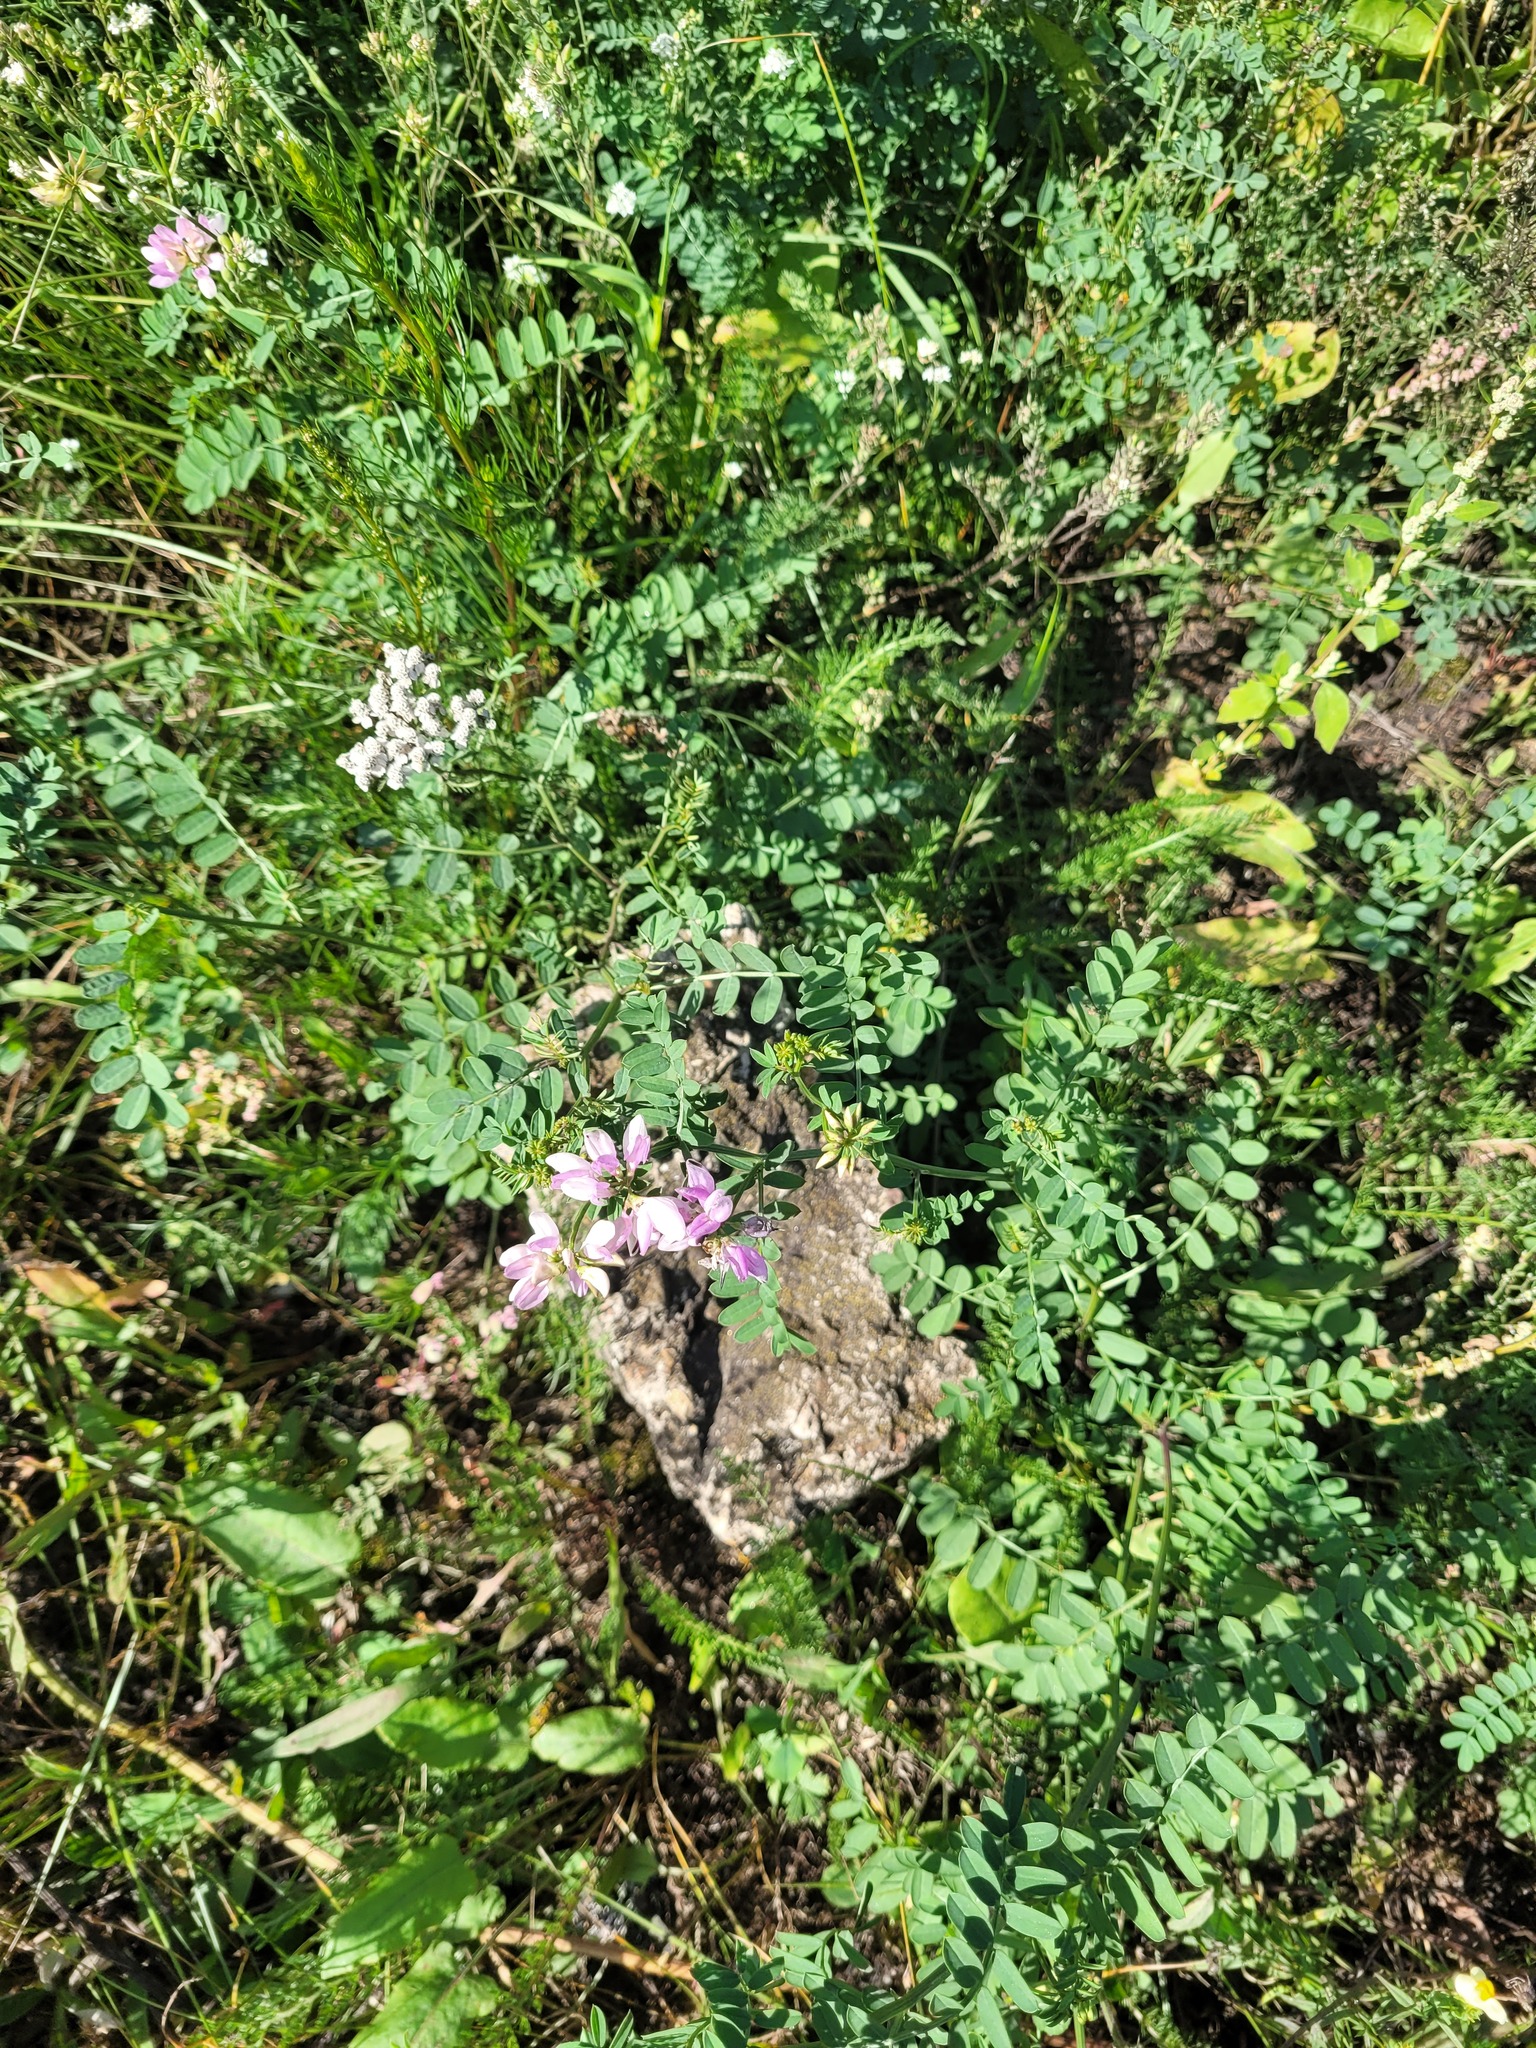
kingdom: Plantae
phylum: Tracheophyta
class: Magnoliopsida
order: Fabales
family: Fabaceae
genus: Coronilla
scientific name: Coronilla varia
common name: Crownvetch
